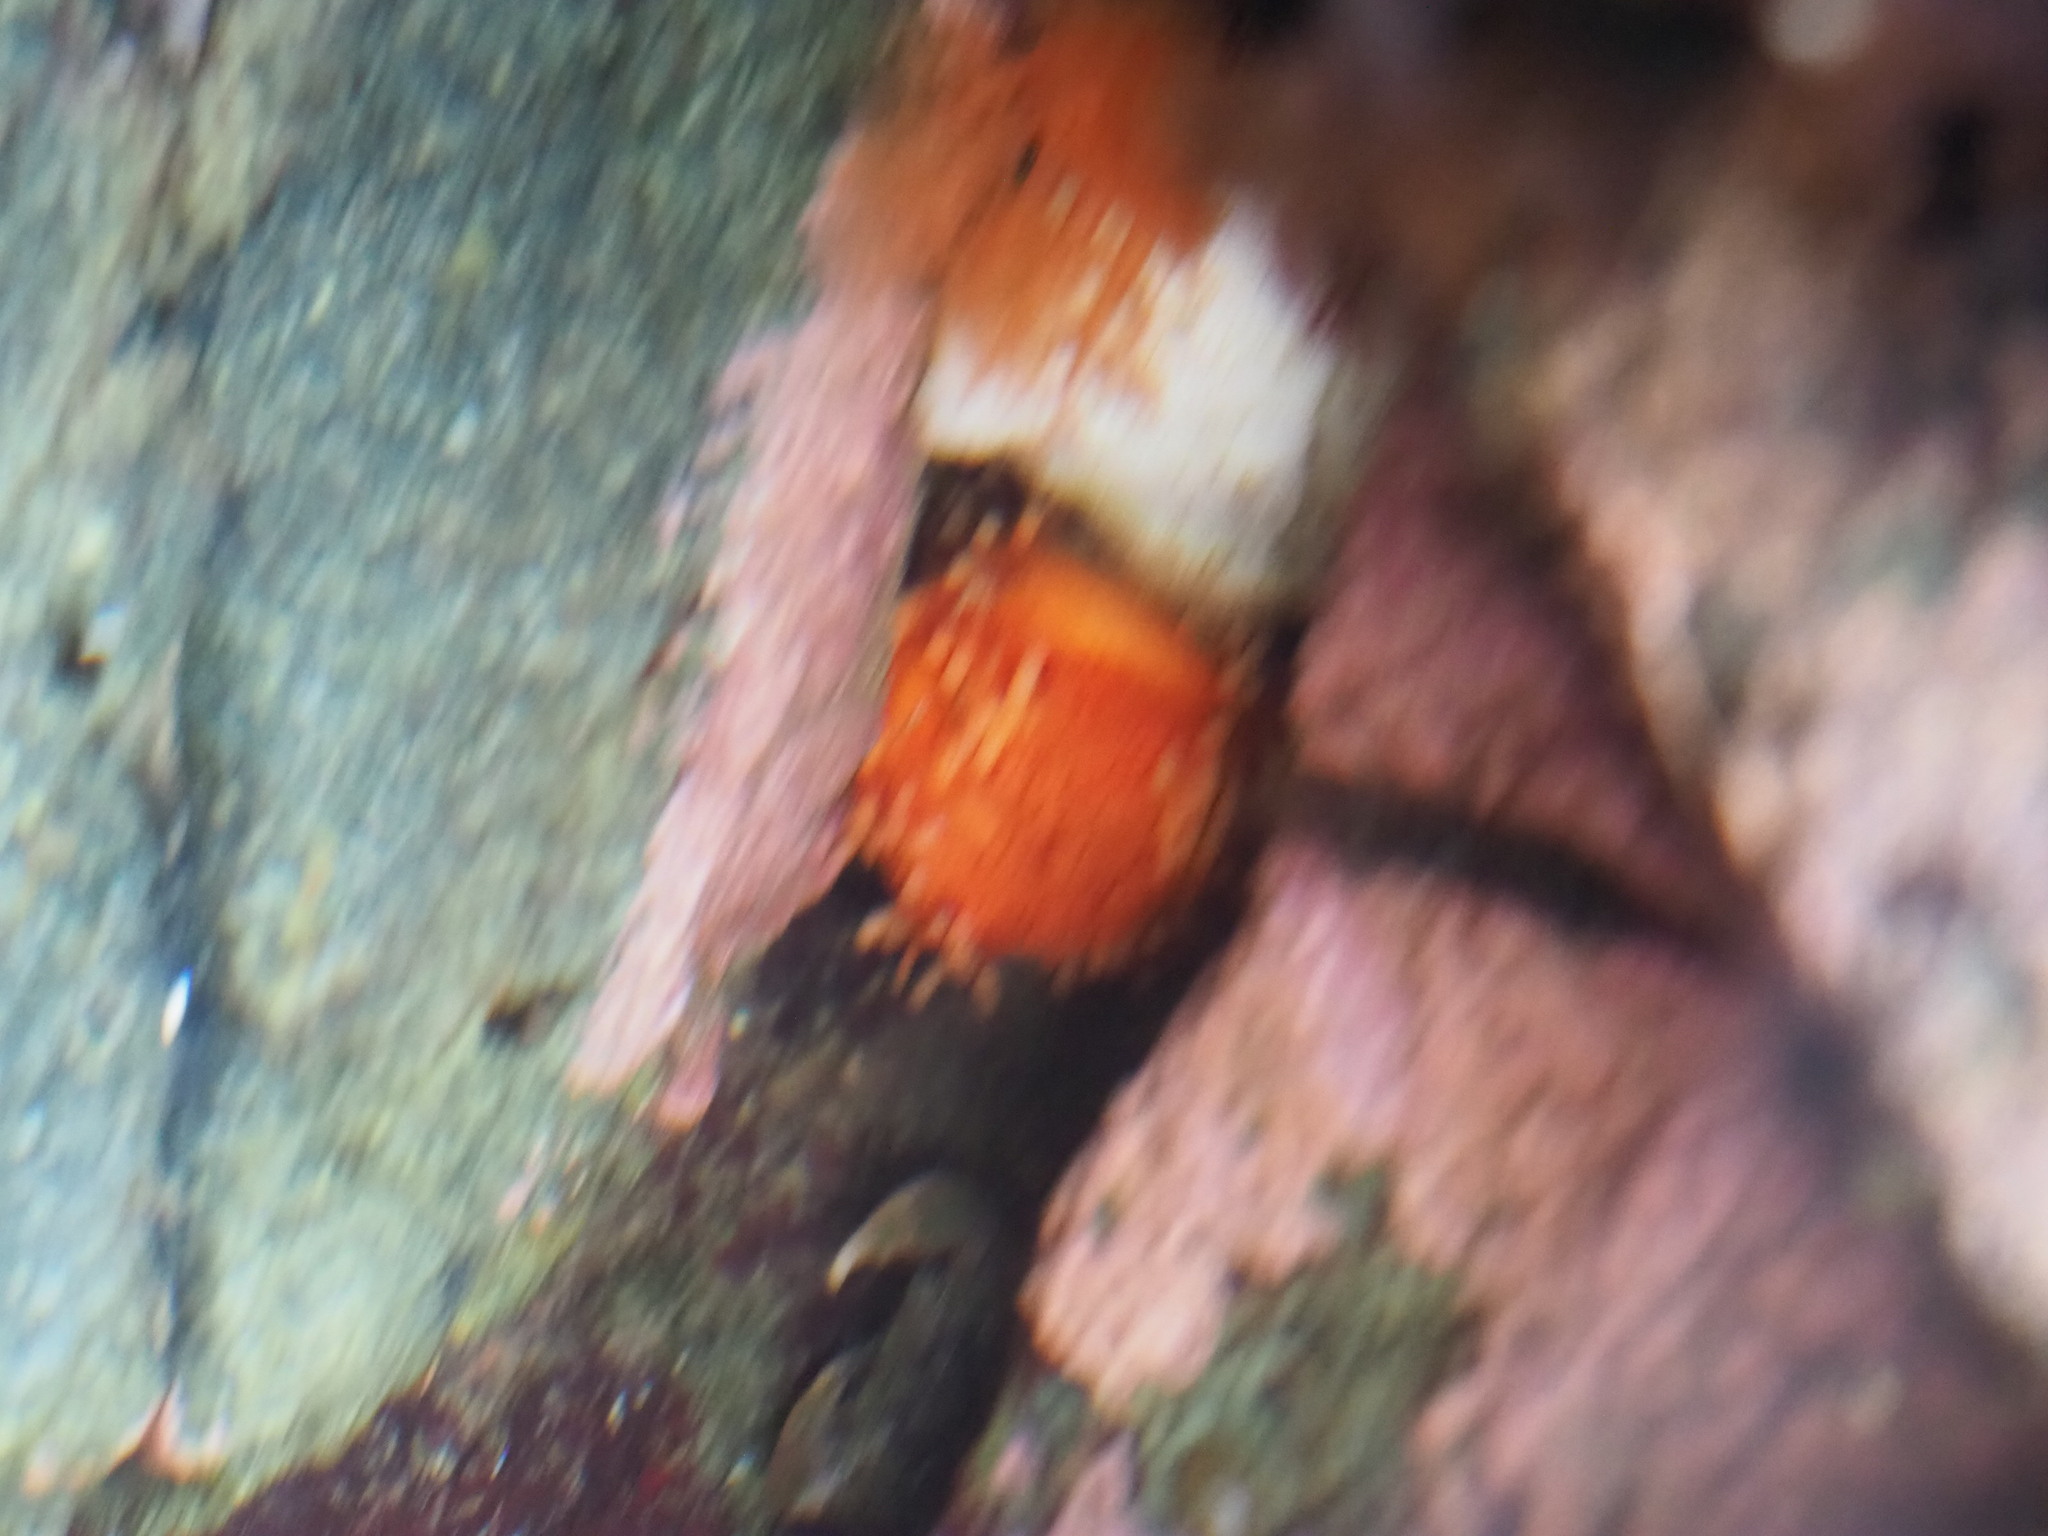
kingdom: Animalia
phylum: Echinodermata
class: Holothuroidea
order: Dendrochirotida
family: Cucumariidae
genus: Cucumaria
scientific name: Cucumaria miniata
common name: Orange sea cucumber
